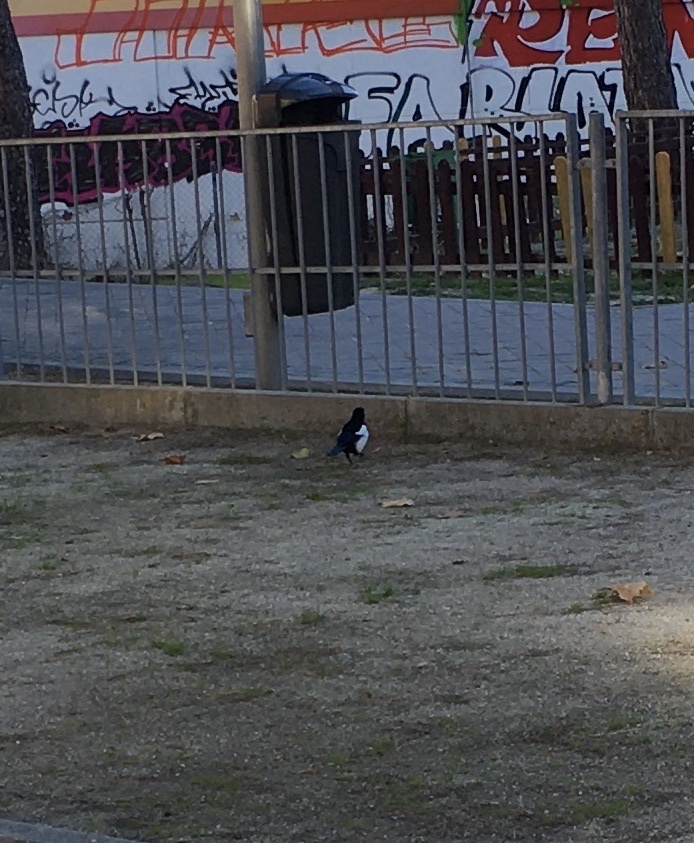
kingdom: Animalia
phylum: Chordata
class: Aves
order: Passeriformes
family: Corvidae
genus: Pica
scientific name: Pica pica
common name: Eurasian magpie
